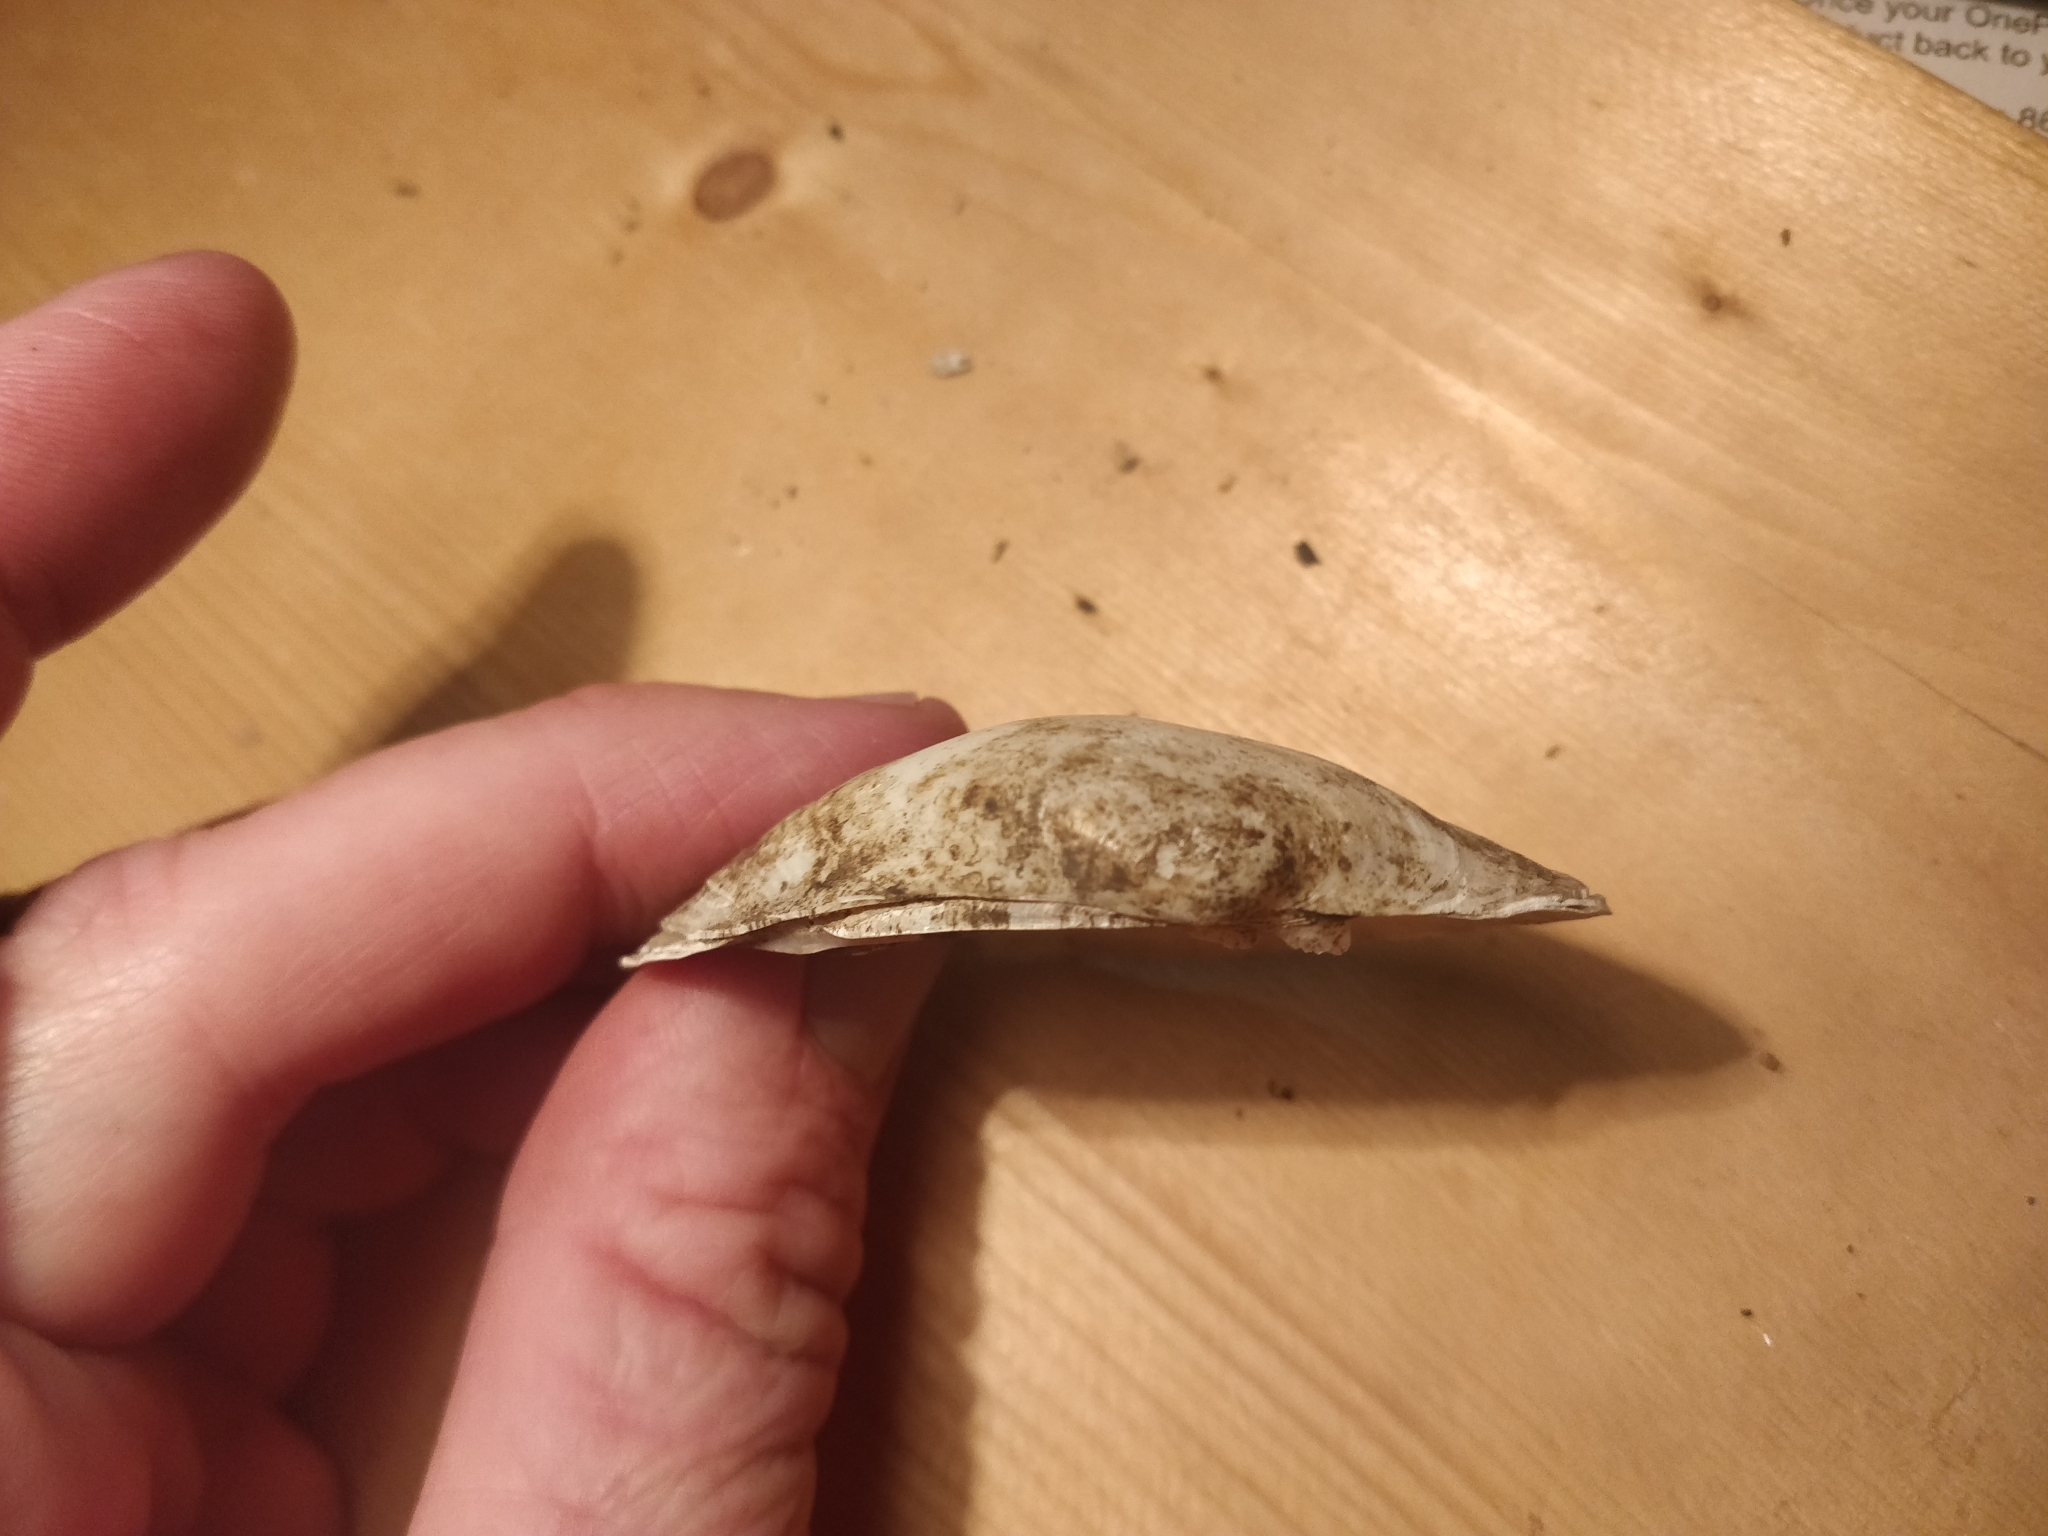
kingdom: Animalia
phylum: Mollusca
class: Bivalvia
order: Unionida
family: Unionidae
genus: Lampsilis
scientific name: Lampsilis cardium
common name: Plain pocketbook
